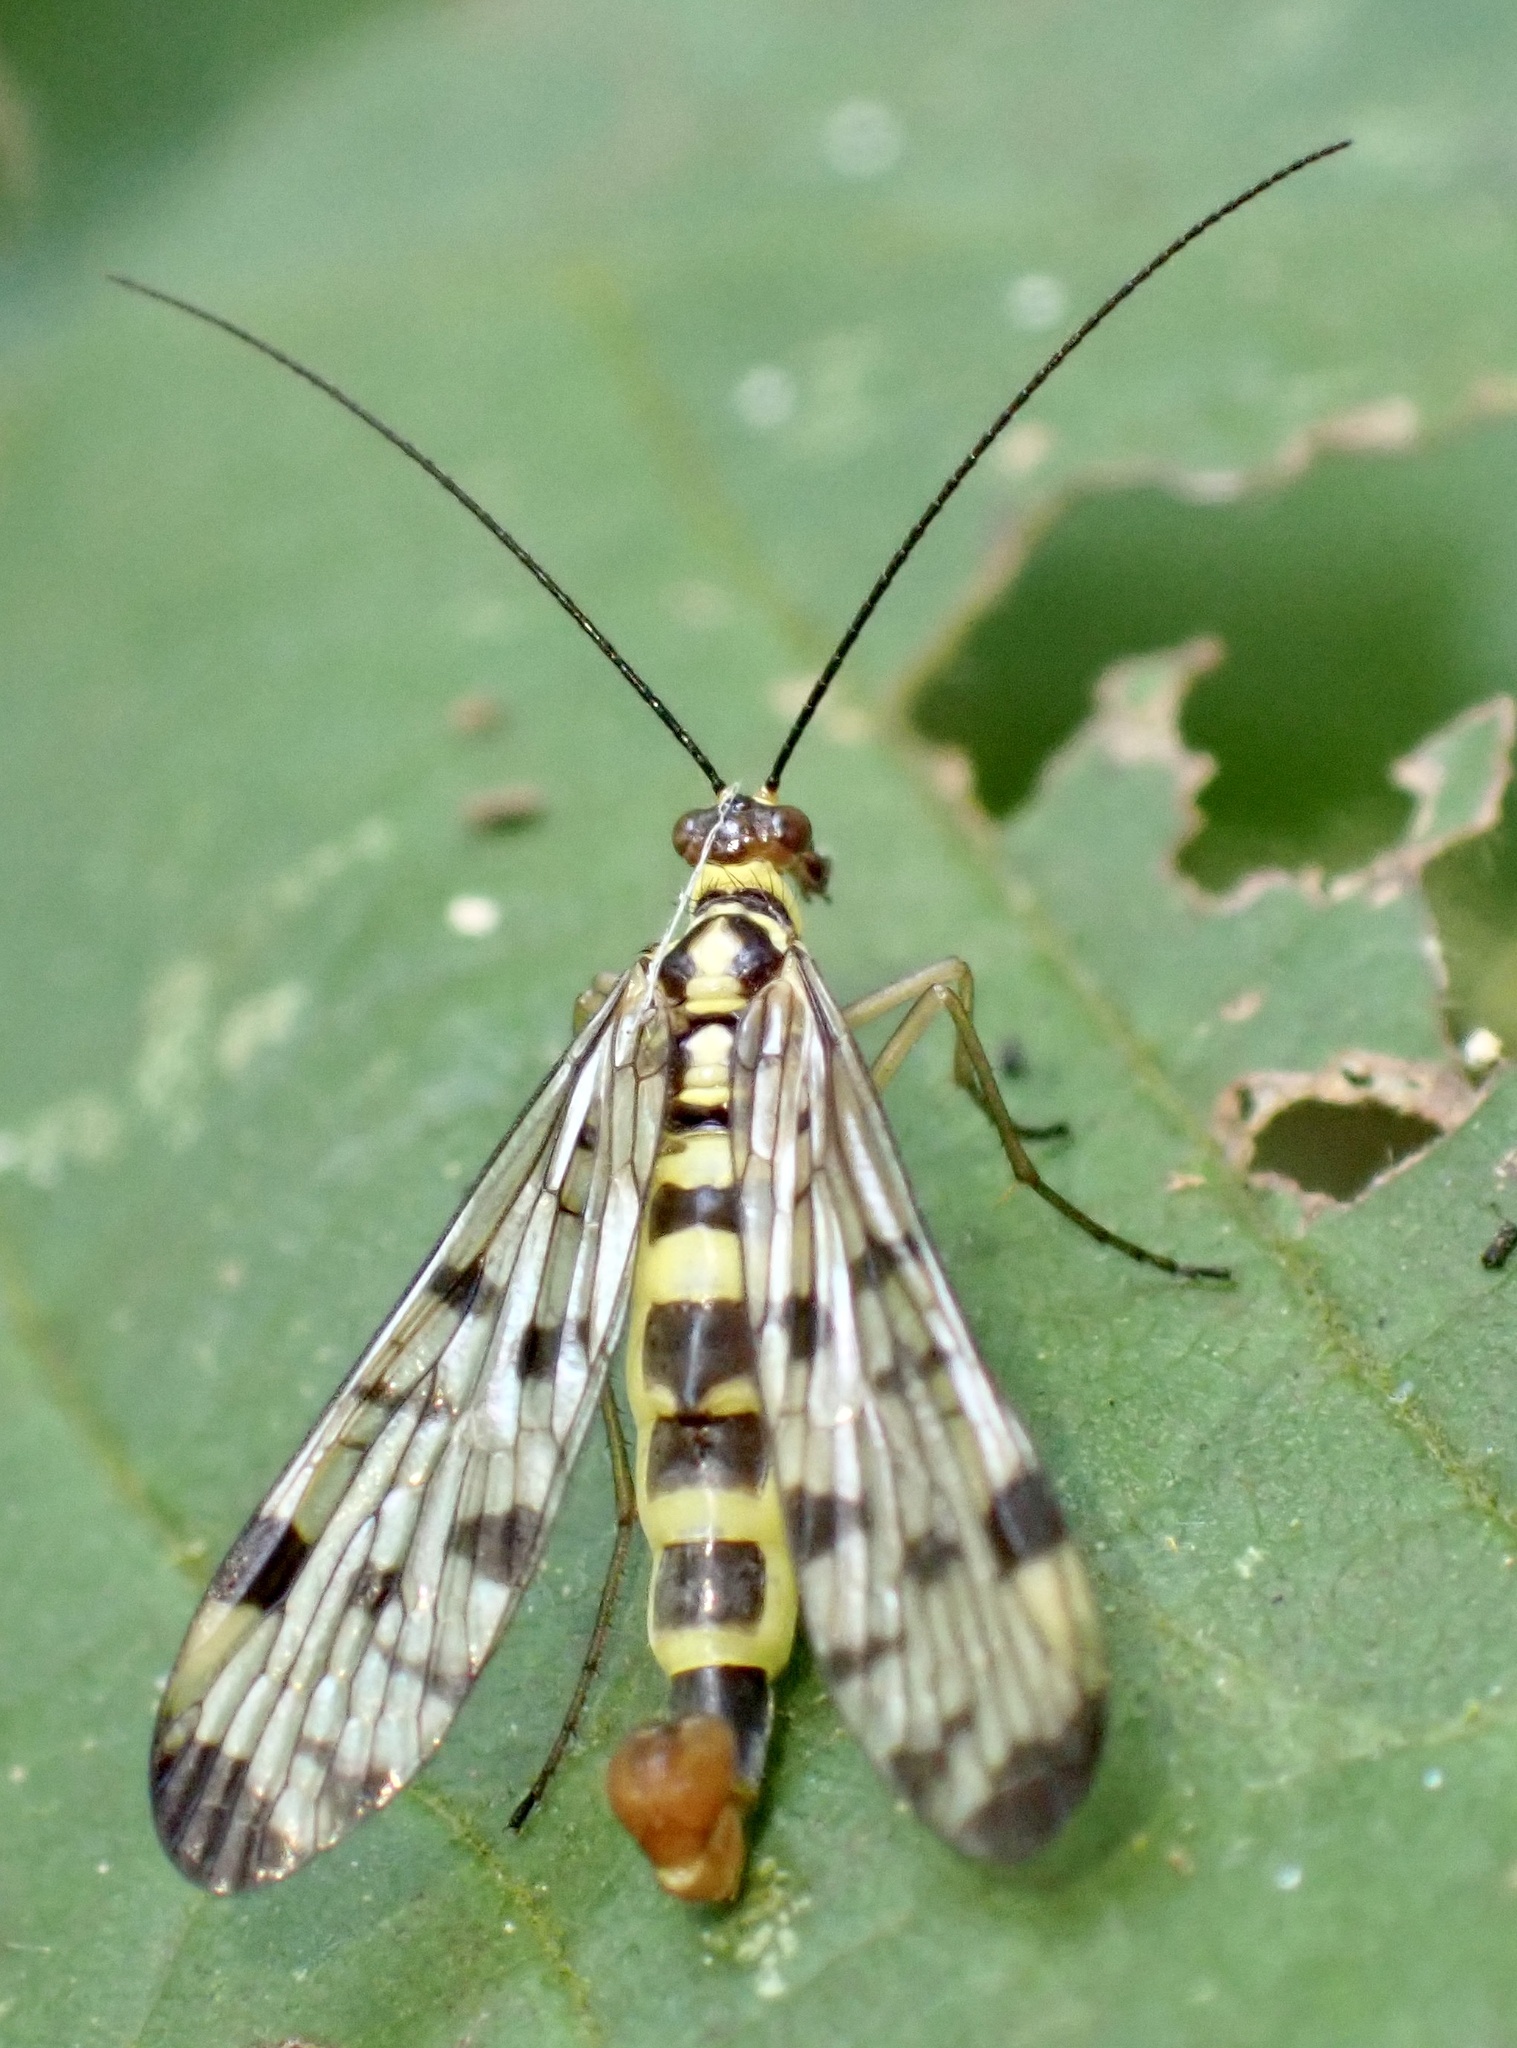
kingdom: Animalia
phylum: Arthropoda
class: Insecta
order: Mecoptera
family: Panorpidae
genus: Panorpa
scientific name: Panorpa germanica
